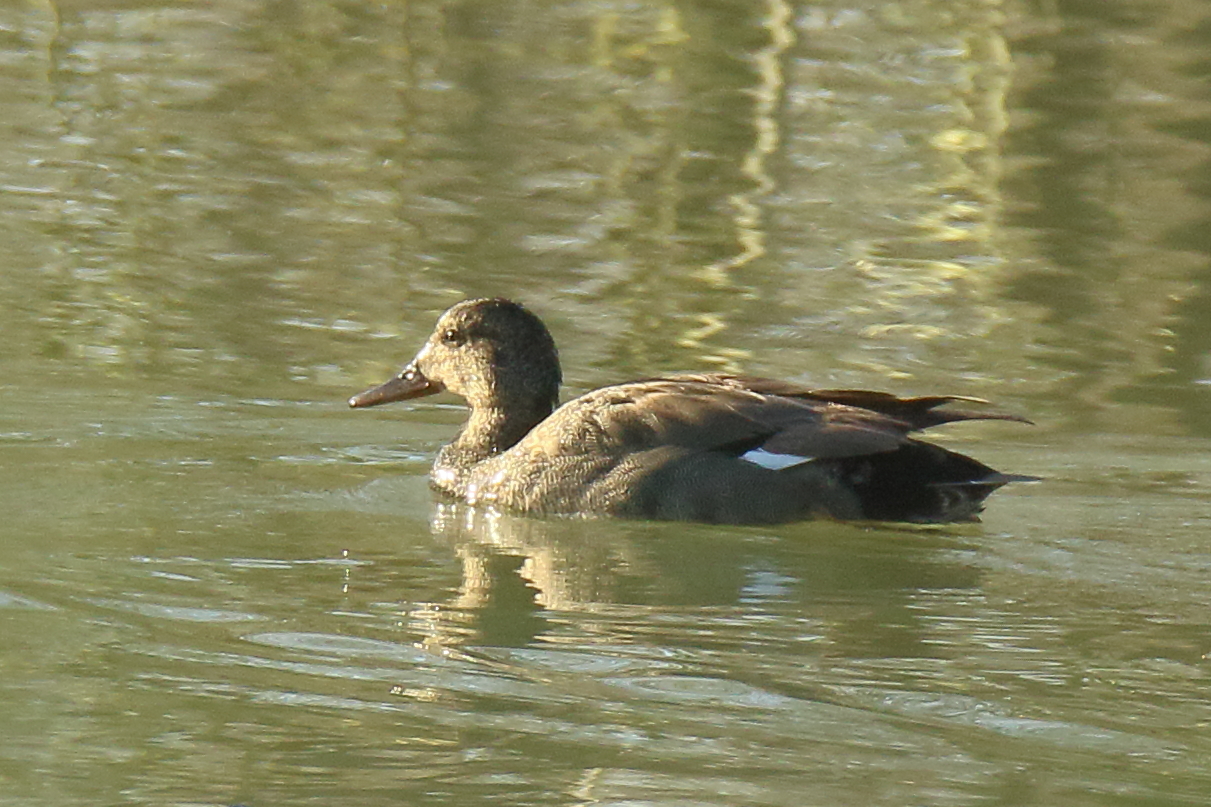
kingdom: Animalia
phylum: Chordata
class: Aves
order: Anseriformes
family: Anatidae
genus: Mareca
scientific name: Mareca strepera
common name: Gadwall
